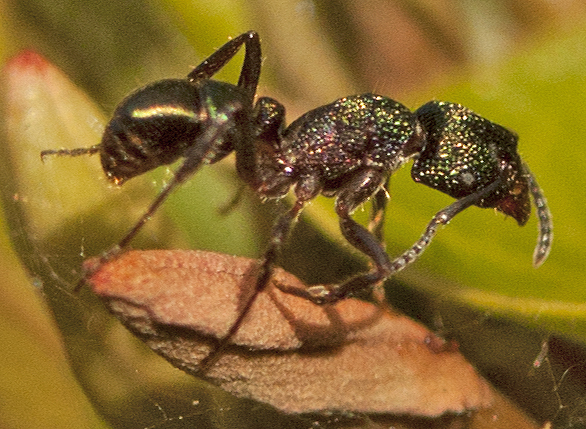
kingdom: Animalia
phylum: Arthropoda
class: Insecta
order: Hymenoptera
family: Formicidae
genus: Rhytidoponera
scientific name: Rhytidoponera metallica
